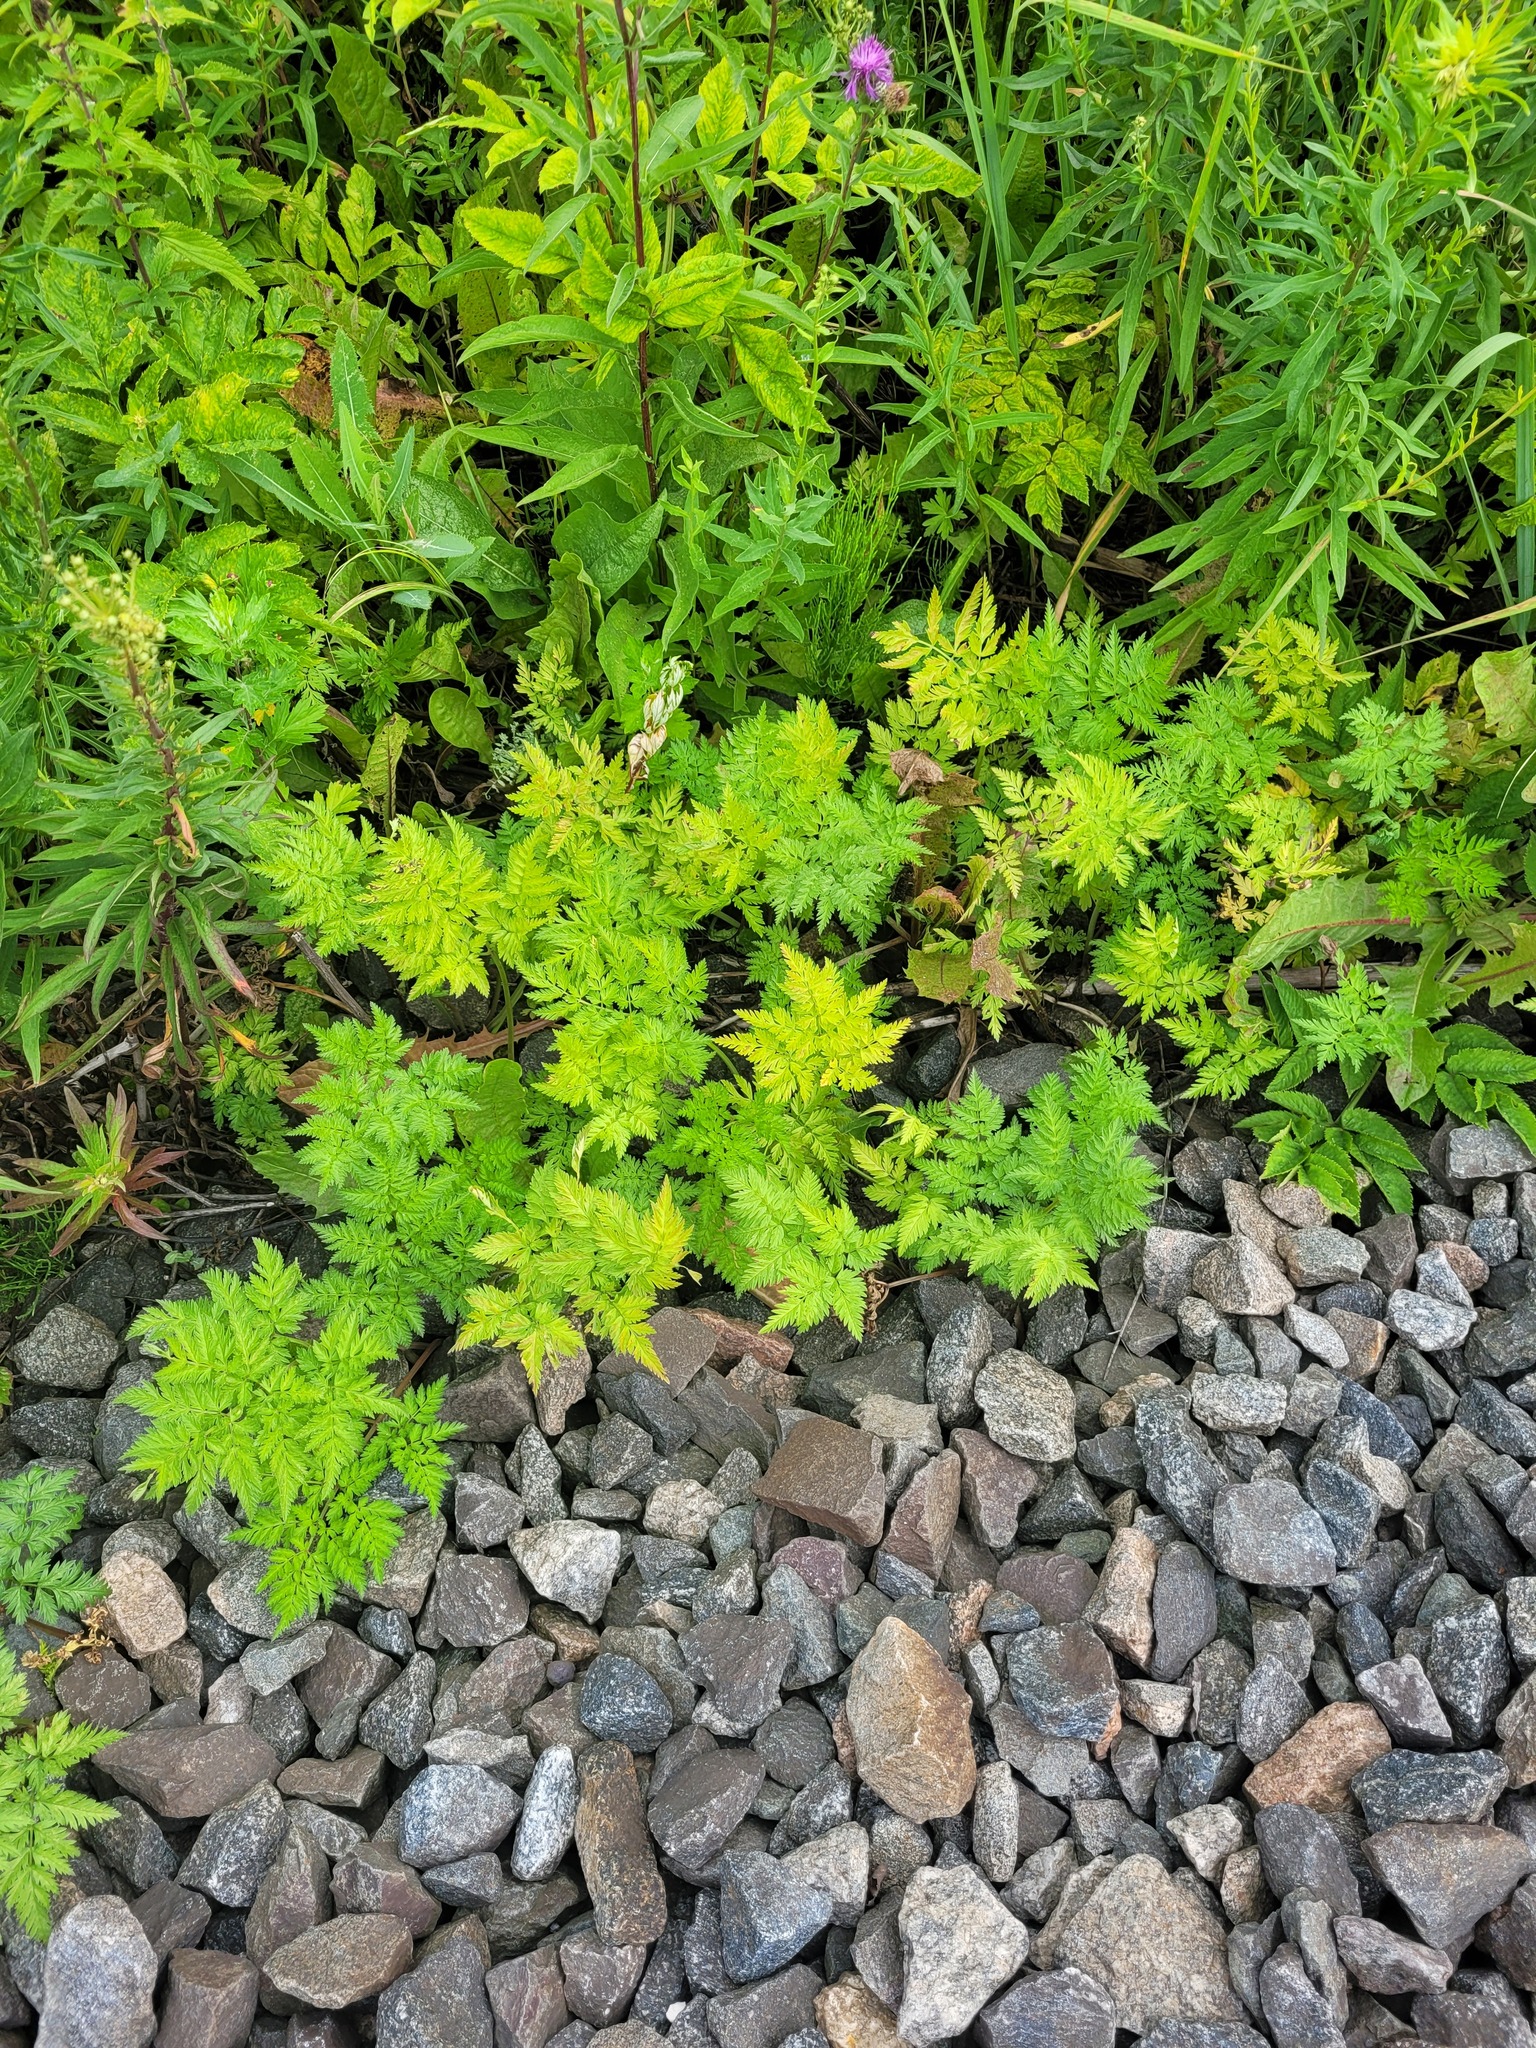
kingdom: Plantae
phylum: Tracheophyta
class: Magnoliopsida
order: Apiales
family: Apiaceae
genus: Anthriscus
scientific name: Anthriscus sylvestris
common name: Cow parsley
